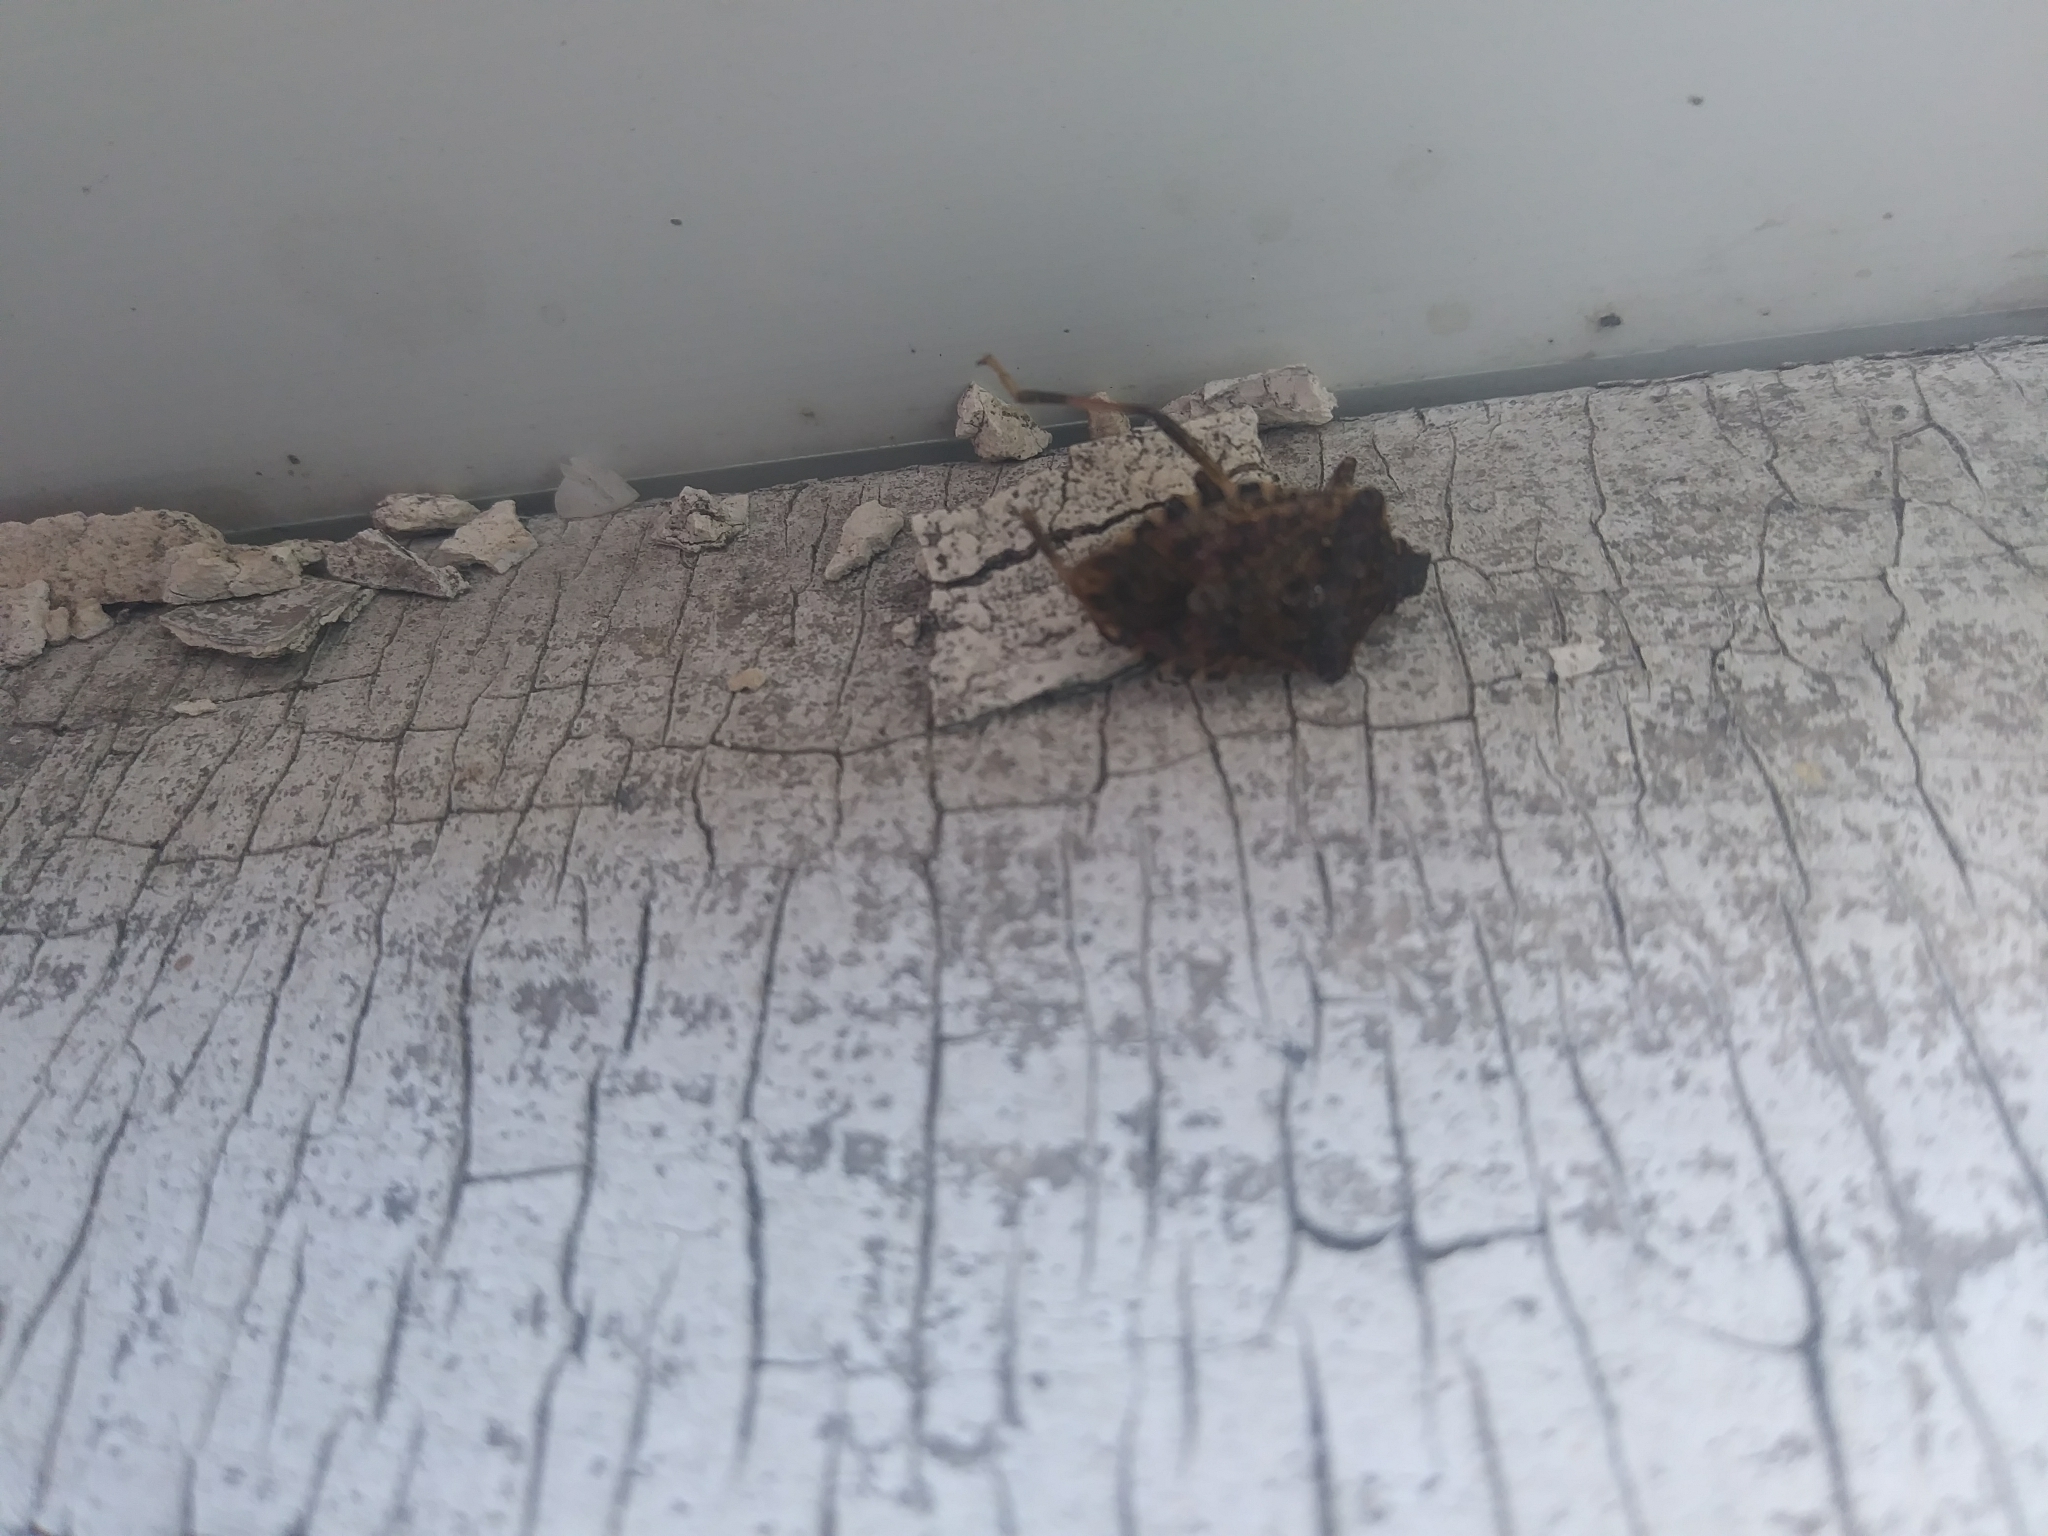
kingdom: Animalia
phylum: Arthropoda
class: Insecta
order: Hemiptera
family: Pentatomidae
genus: Halyomorpha
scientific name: Halyomorpha halys
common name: Brown marmorated stink bug
